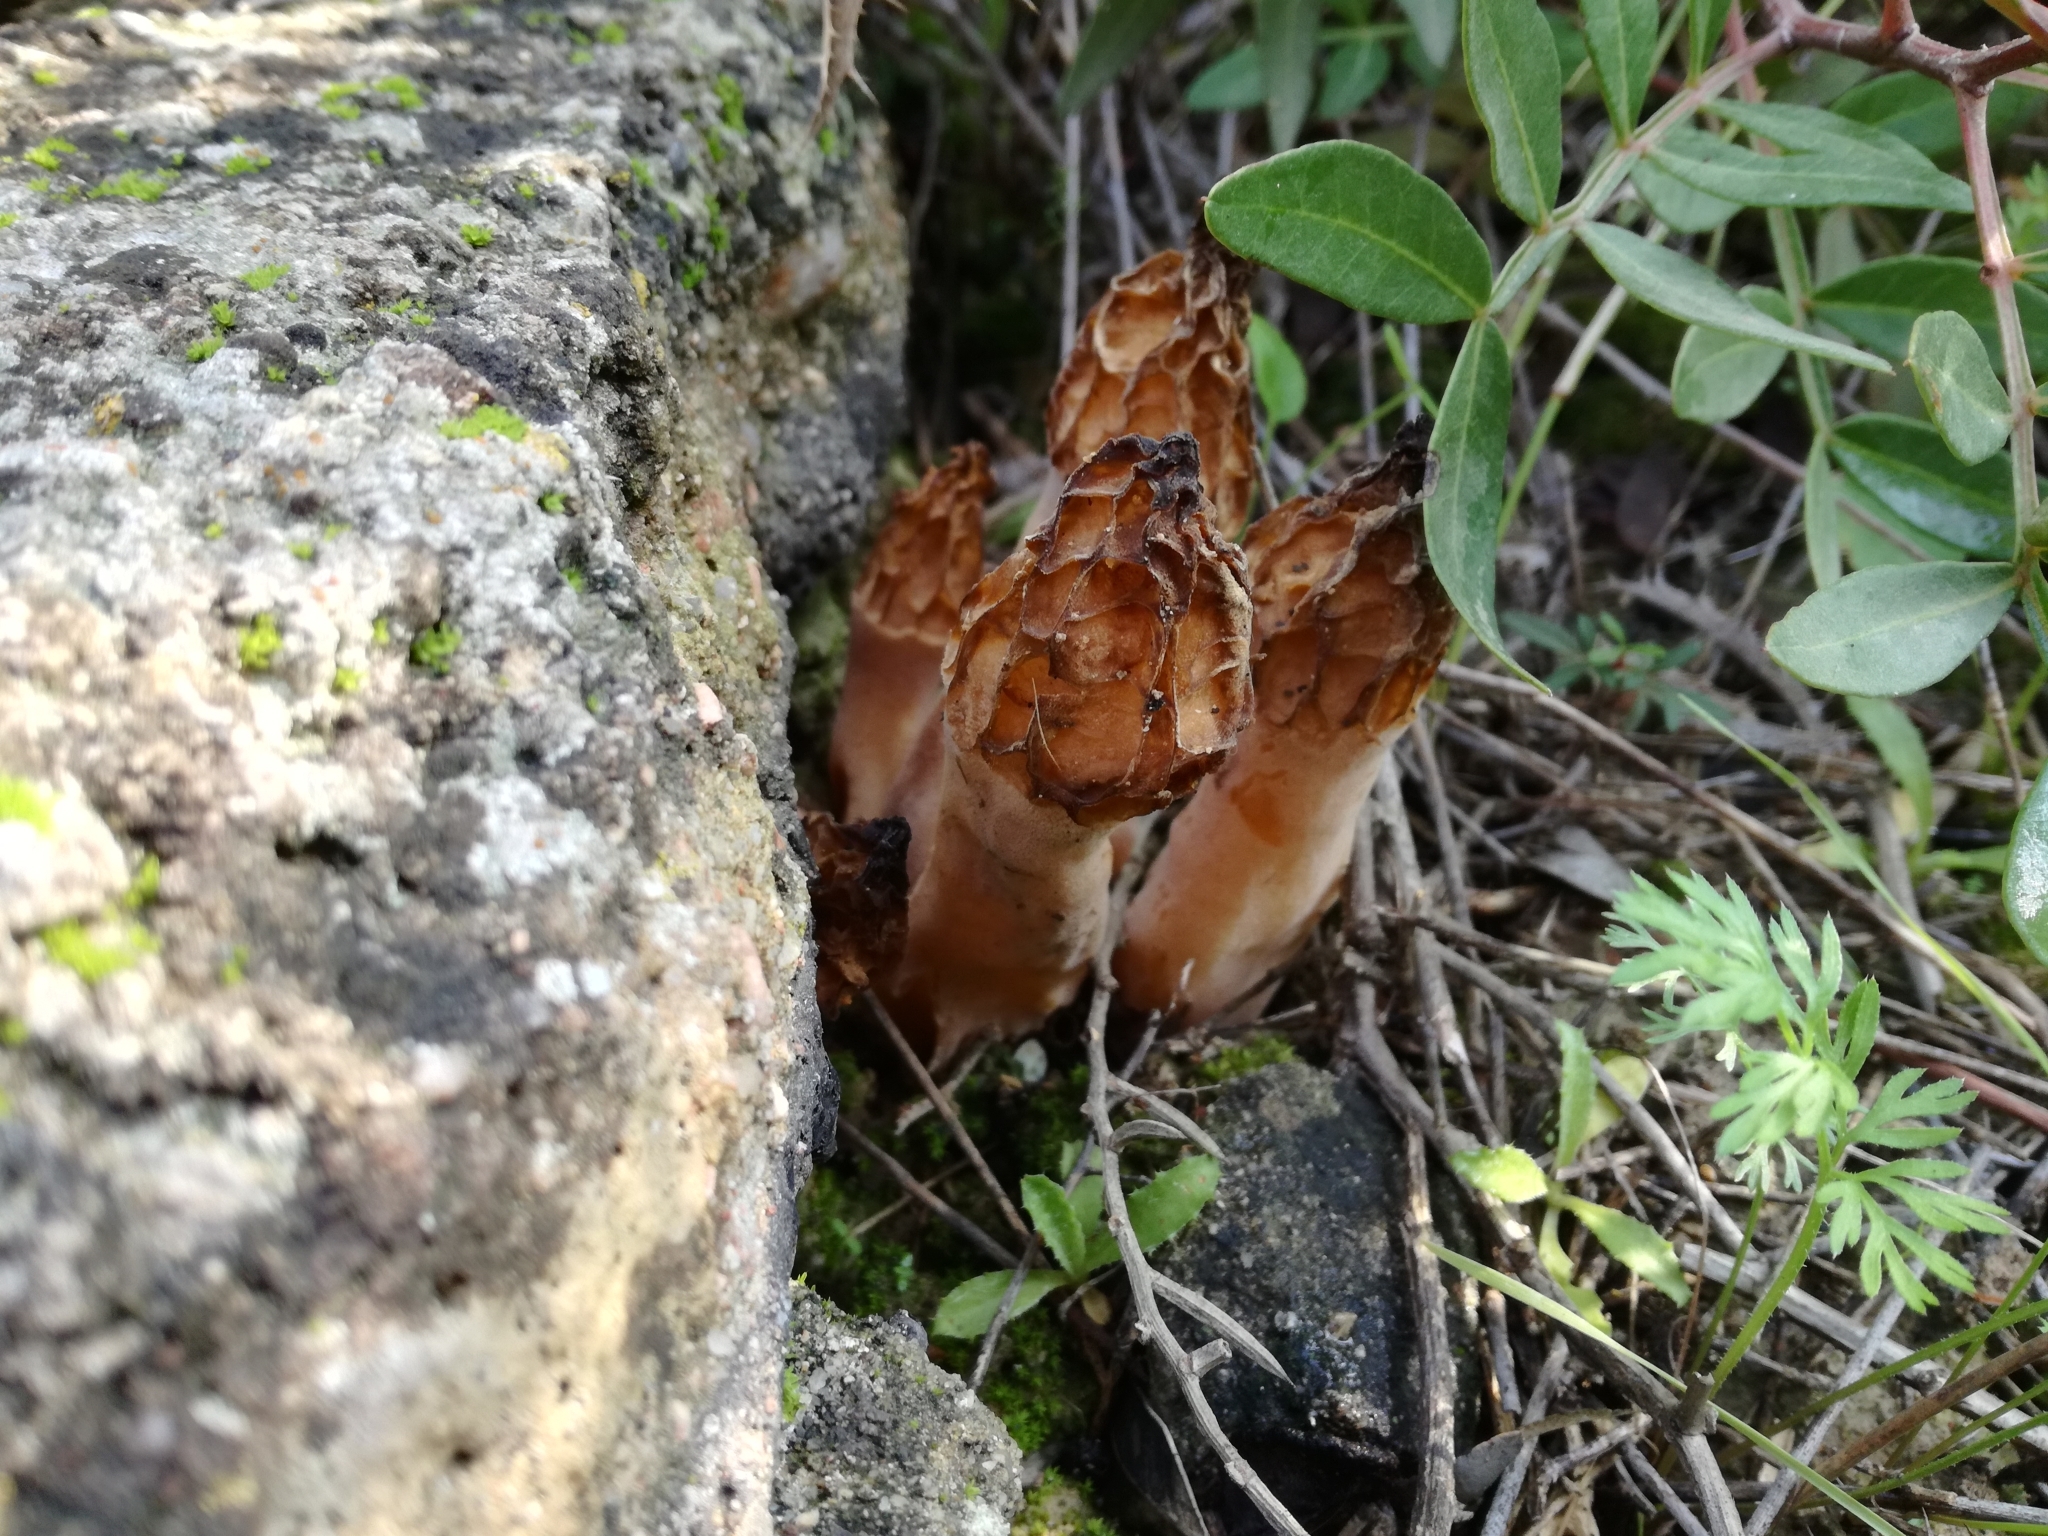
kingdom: Fungi
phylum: Ascomycota
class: Pezizomycetes
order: Pezizales
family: Morchellaceae
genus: Morchella
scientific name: Morchella galilaea
